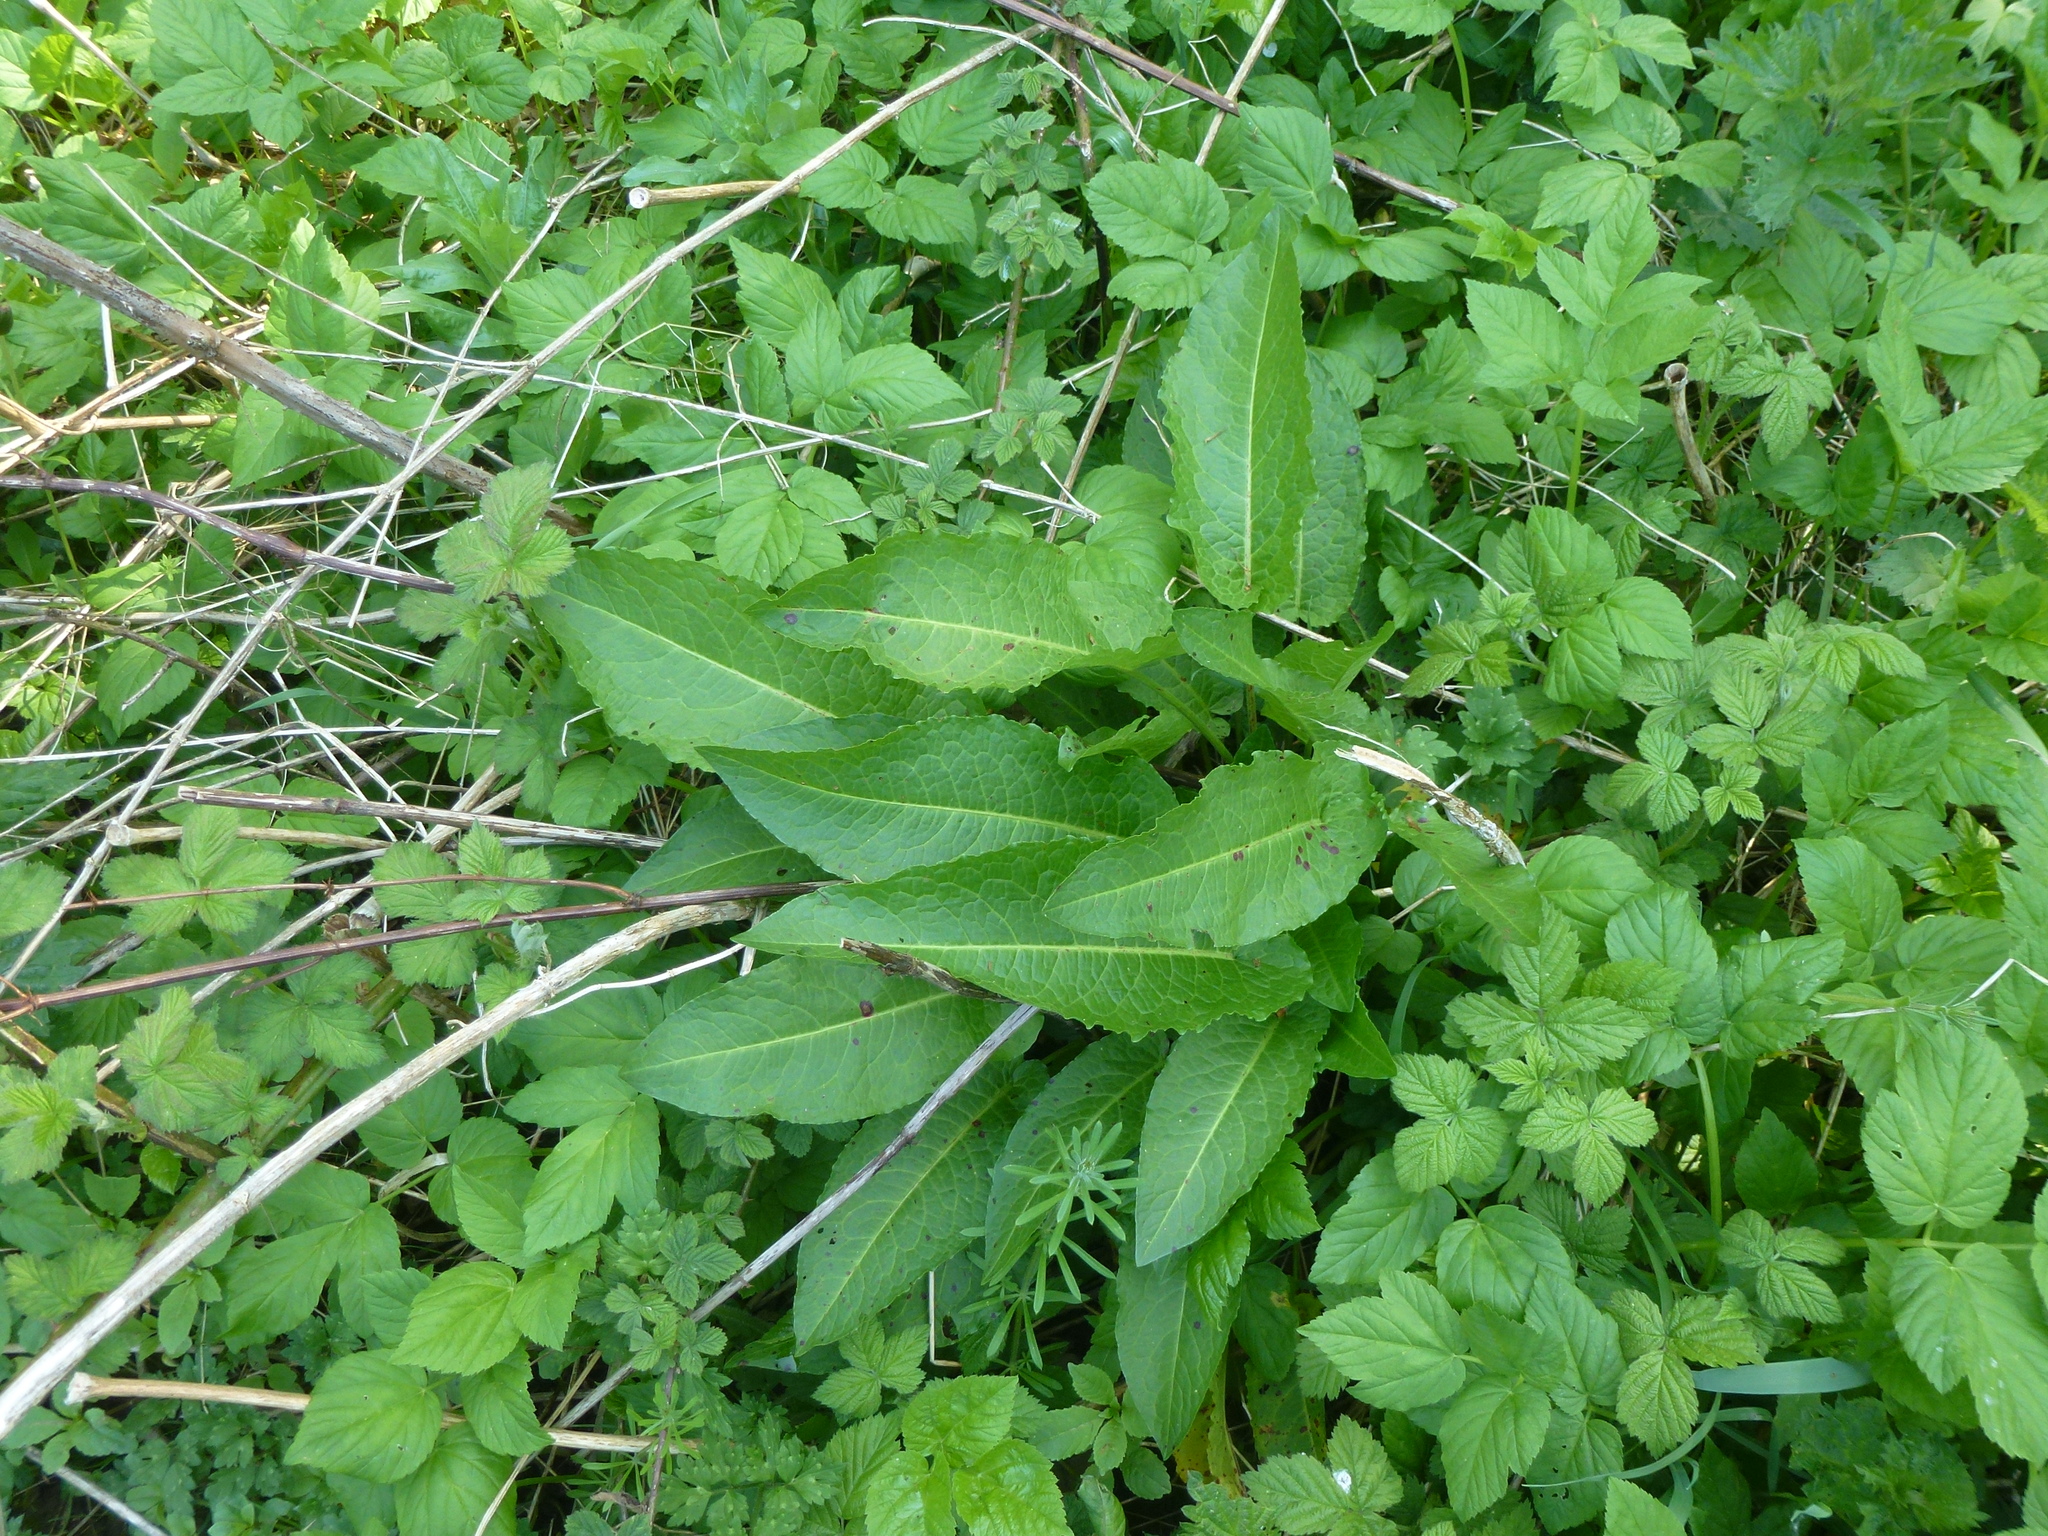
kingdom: Plantae
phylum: Tracheophyta
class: Magnoliopsida
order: Caryophyllales
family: Polygonaceae
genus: Rumex
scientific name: Rumex obtusifolius
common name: Bitter dock
